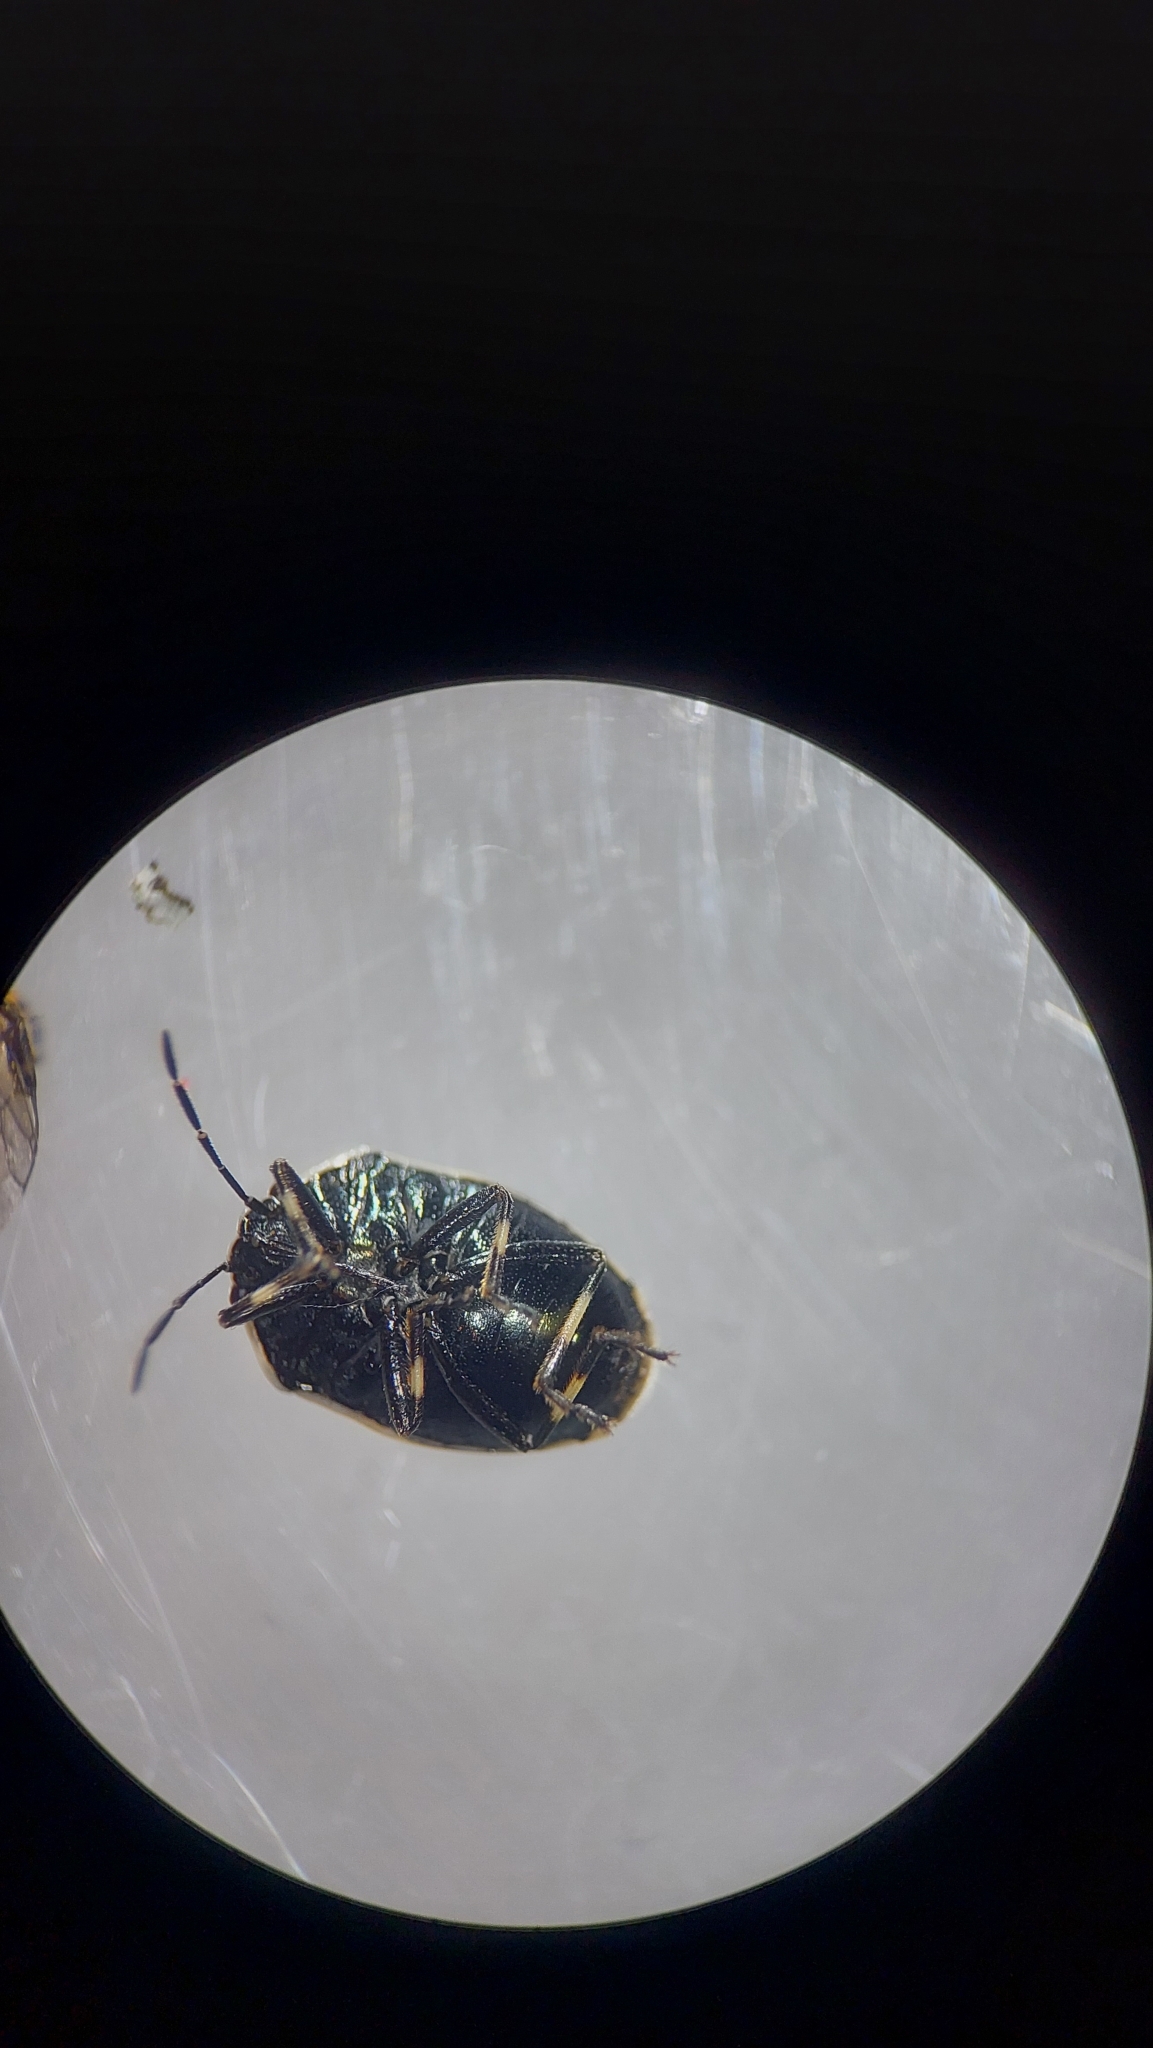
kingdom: Animalia
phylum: Arthropoda
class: Insecta
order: Hemiptera
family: Pentatomidae
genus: Eurydema
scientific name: Eurydema oleracea
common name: Cabbage bug
